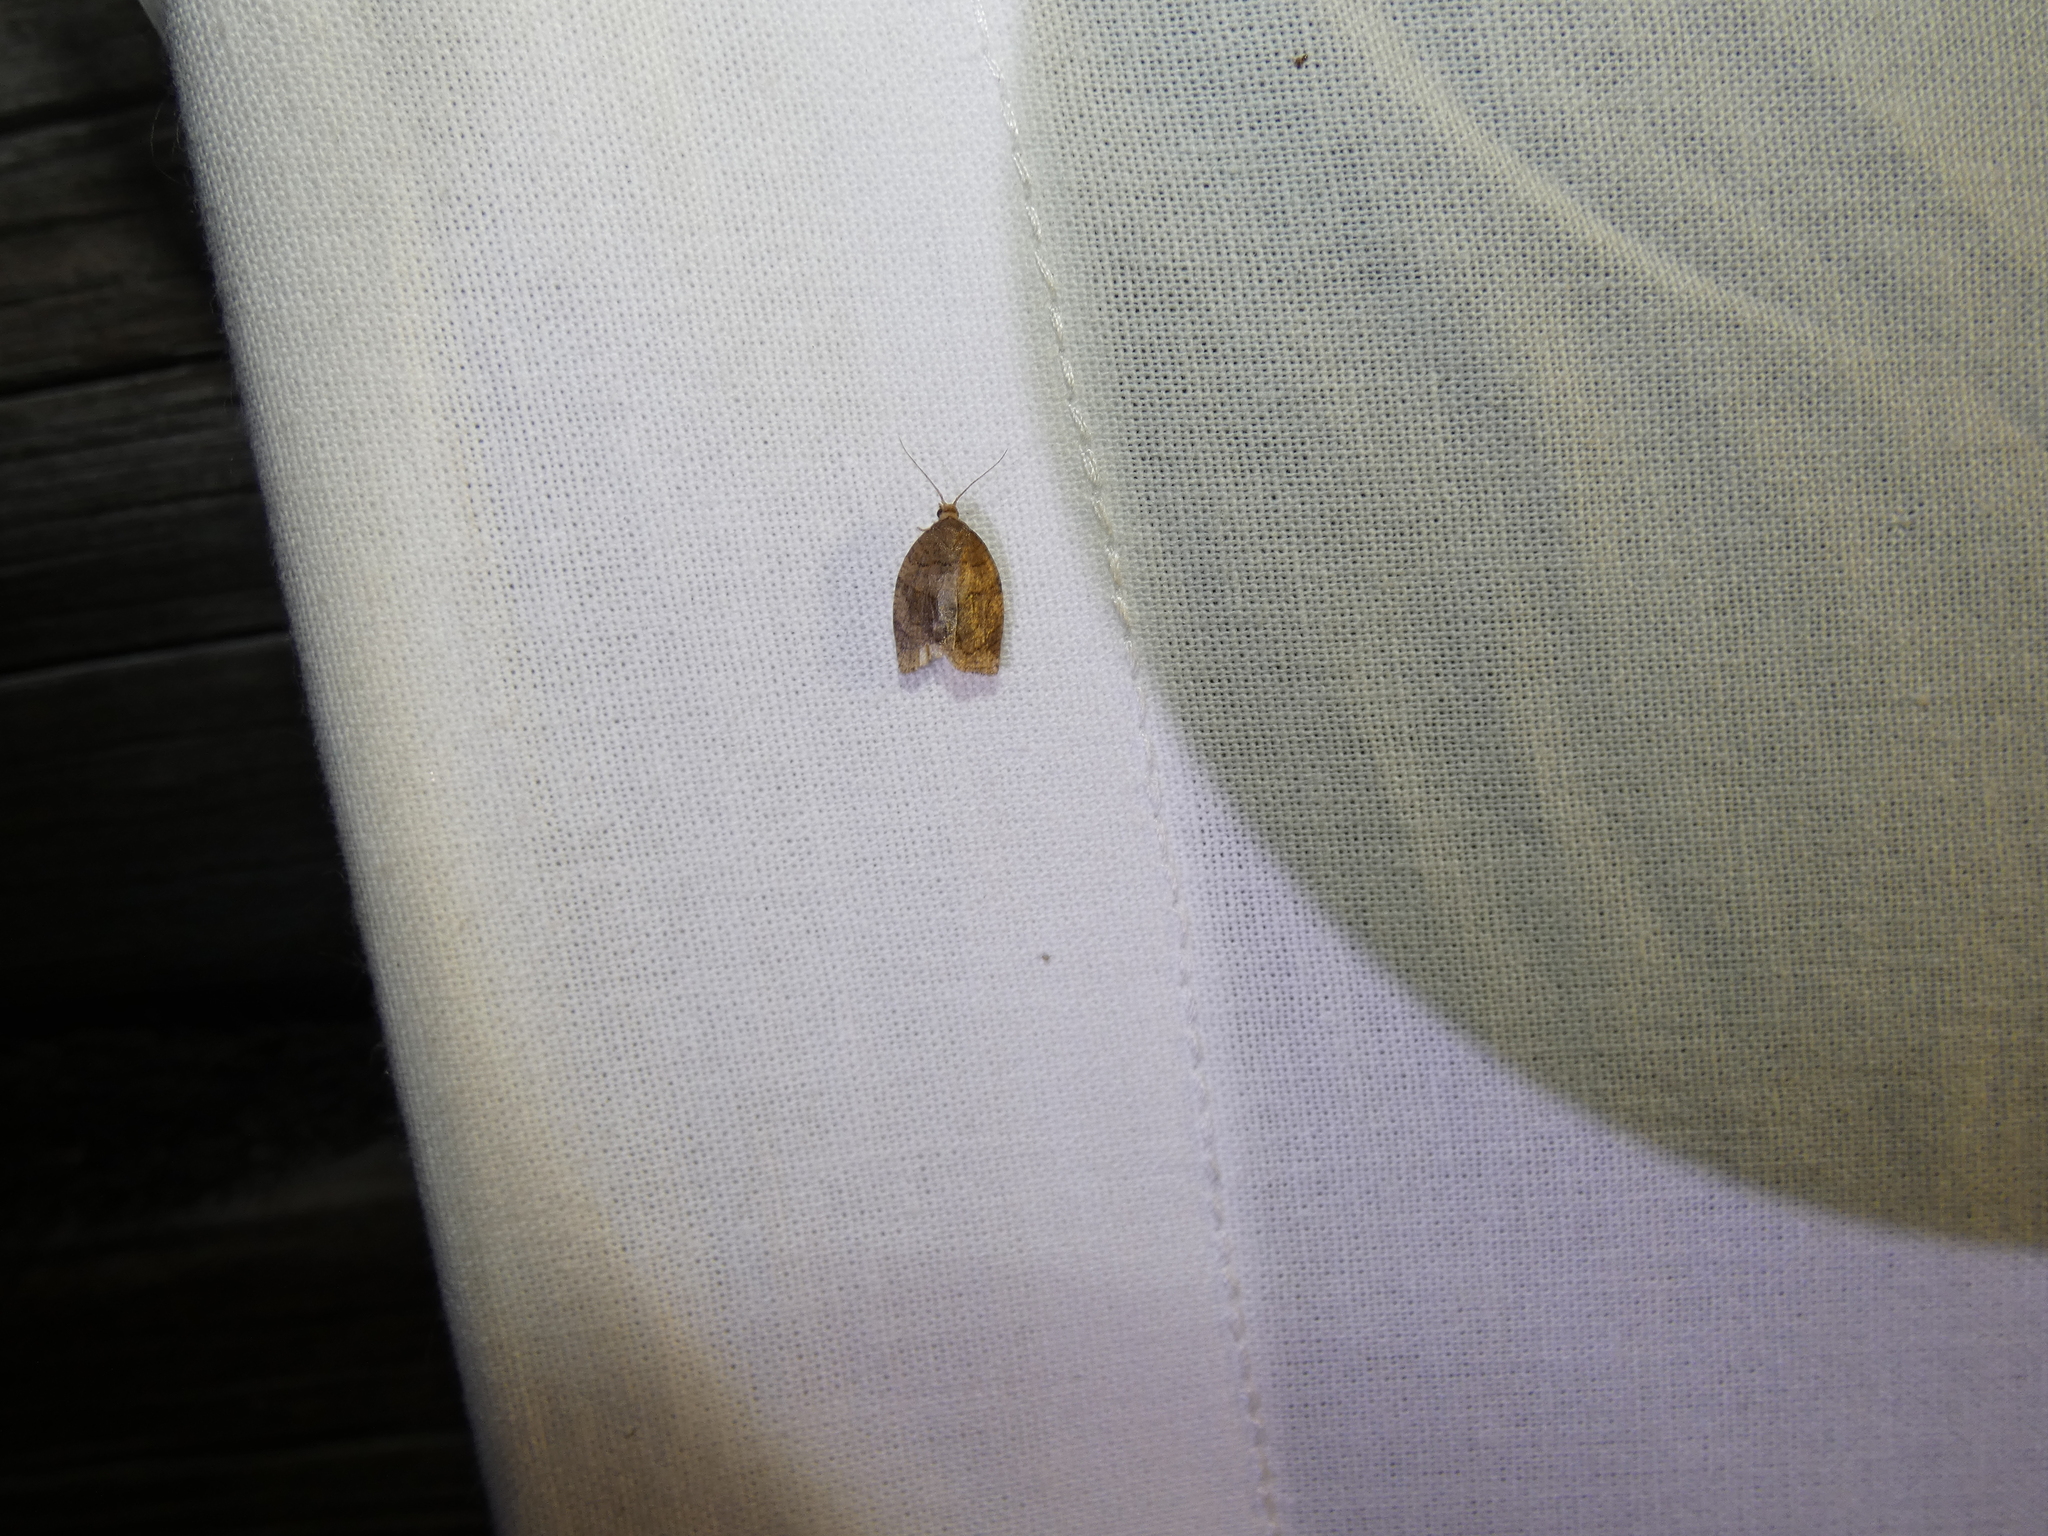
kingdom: Animalia
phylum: Arthropoda
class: Insecta
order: Lepidoptera
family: Tortricidae
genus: Pandemis
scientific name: Pandemis dumetana
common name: Thicket twist
